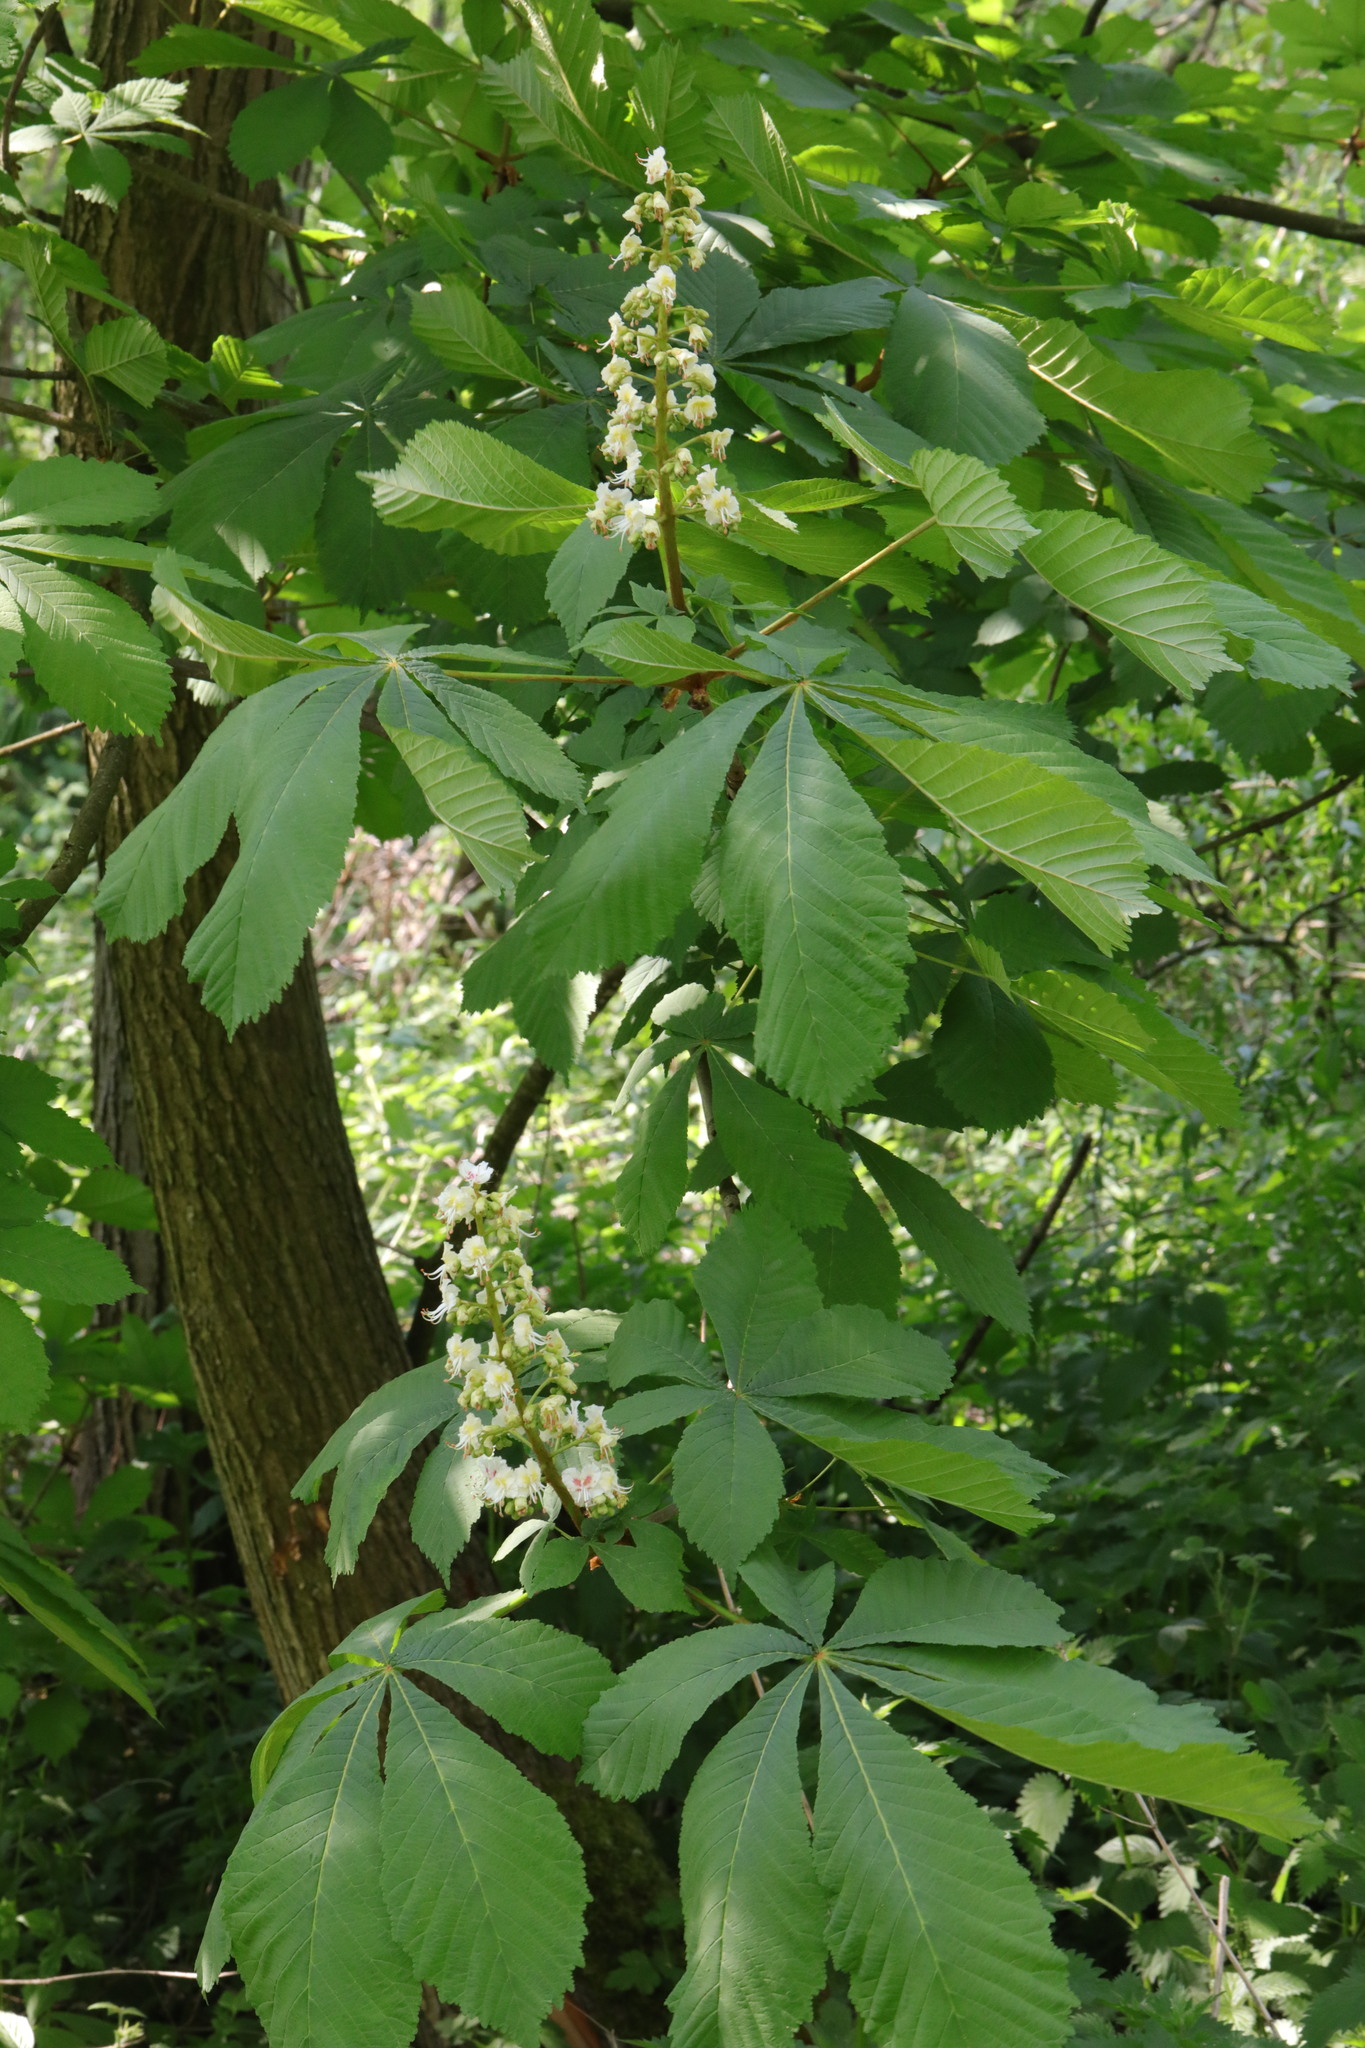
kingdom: Plantae
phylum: Tracheophyta
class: Magnoliopsida
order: Sapindales
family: Sapindaceae
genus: Aesculus
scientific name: Aesculus hippocastanum
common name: Horse-chestnut
